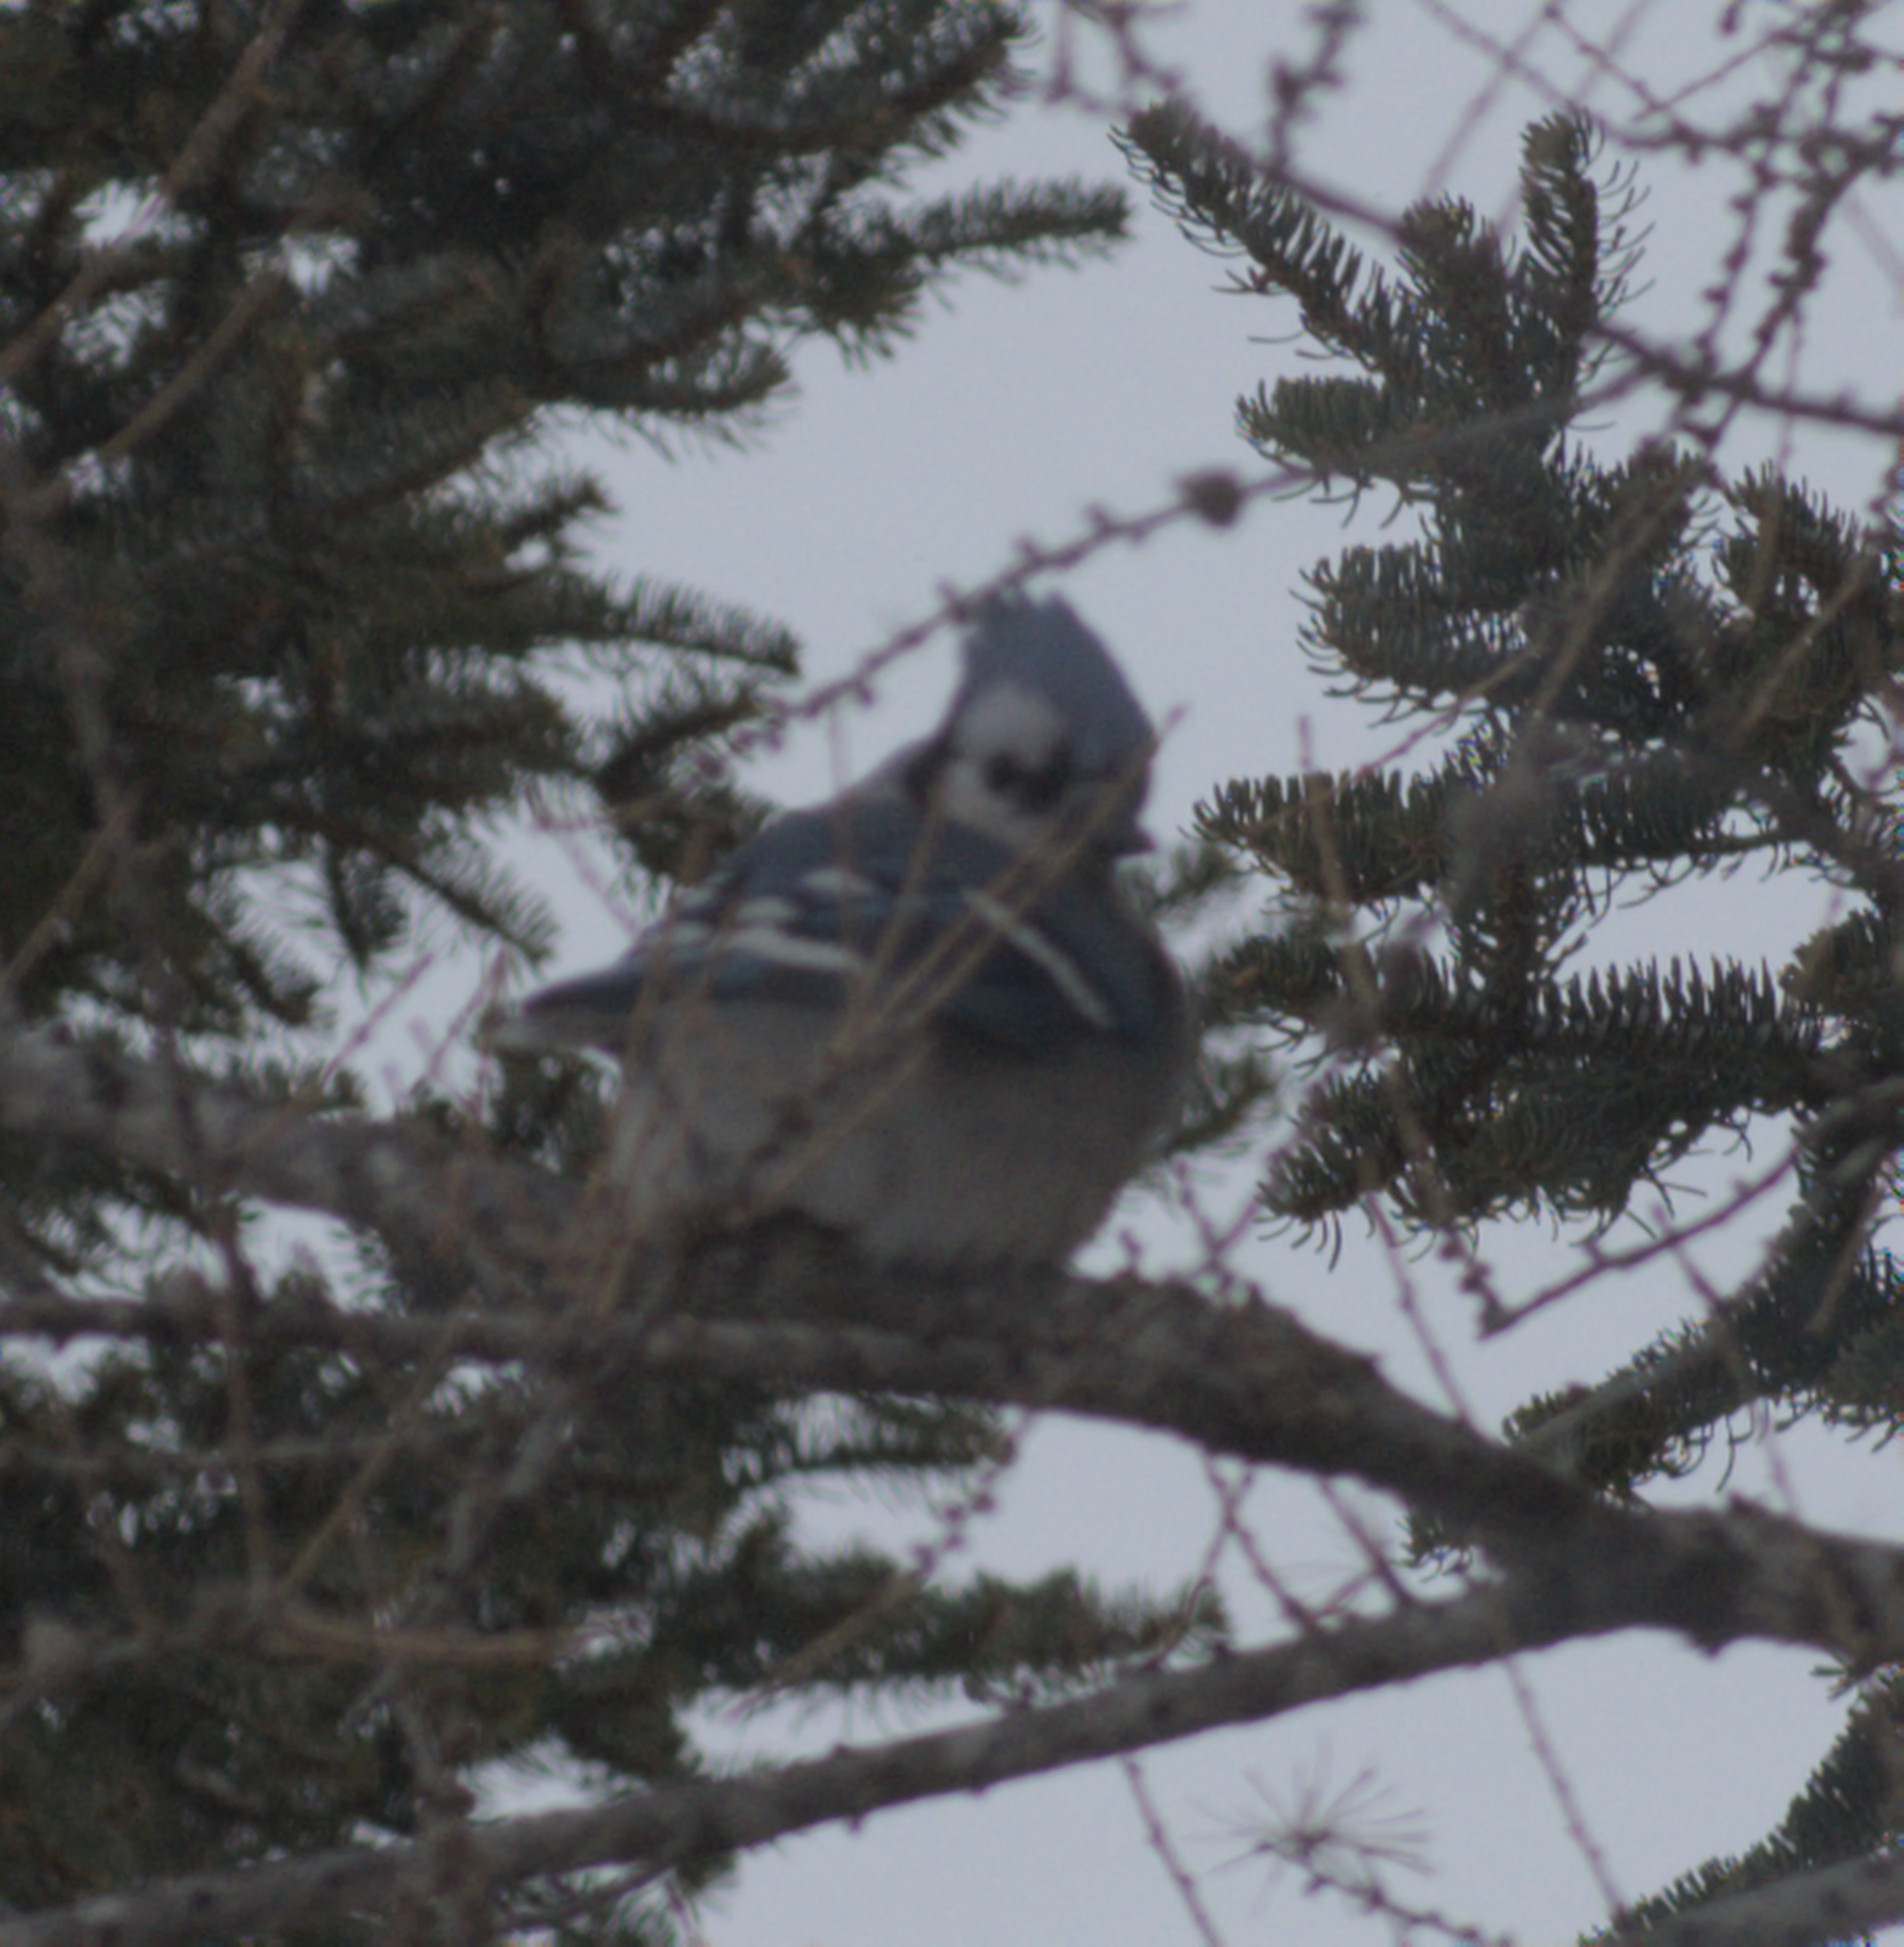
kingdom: Animalia
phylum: Chordata
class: Aves
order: Passeriformes
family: Corvidae
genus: Cyanocitta
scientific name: Cyanocitta cristata
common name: Blue jay
